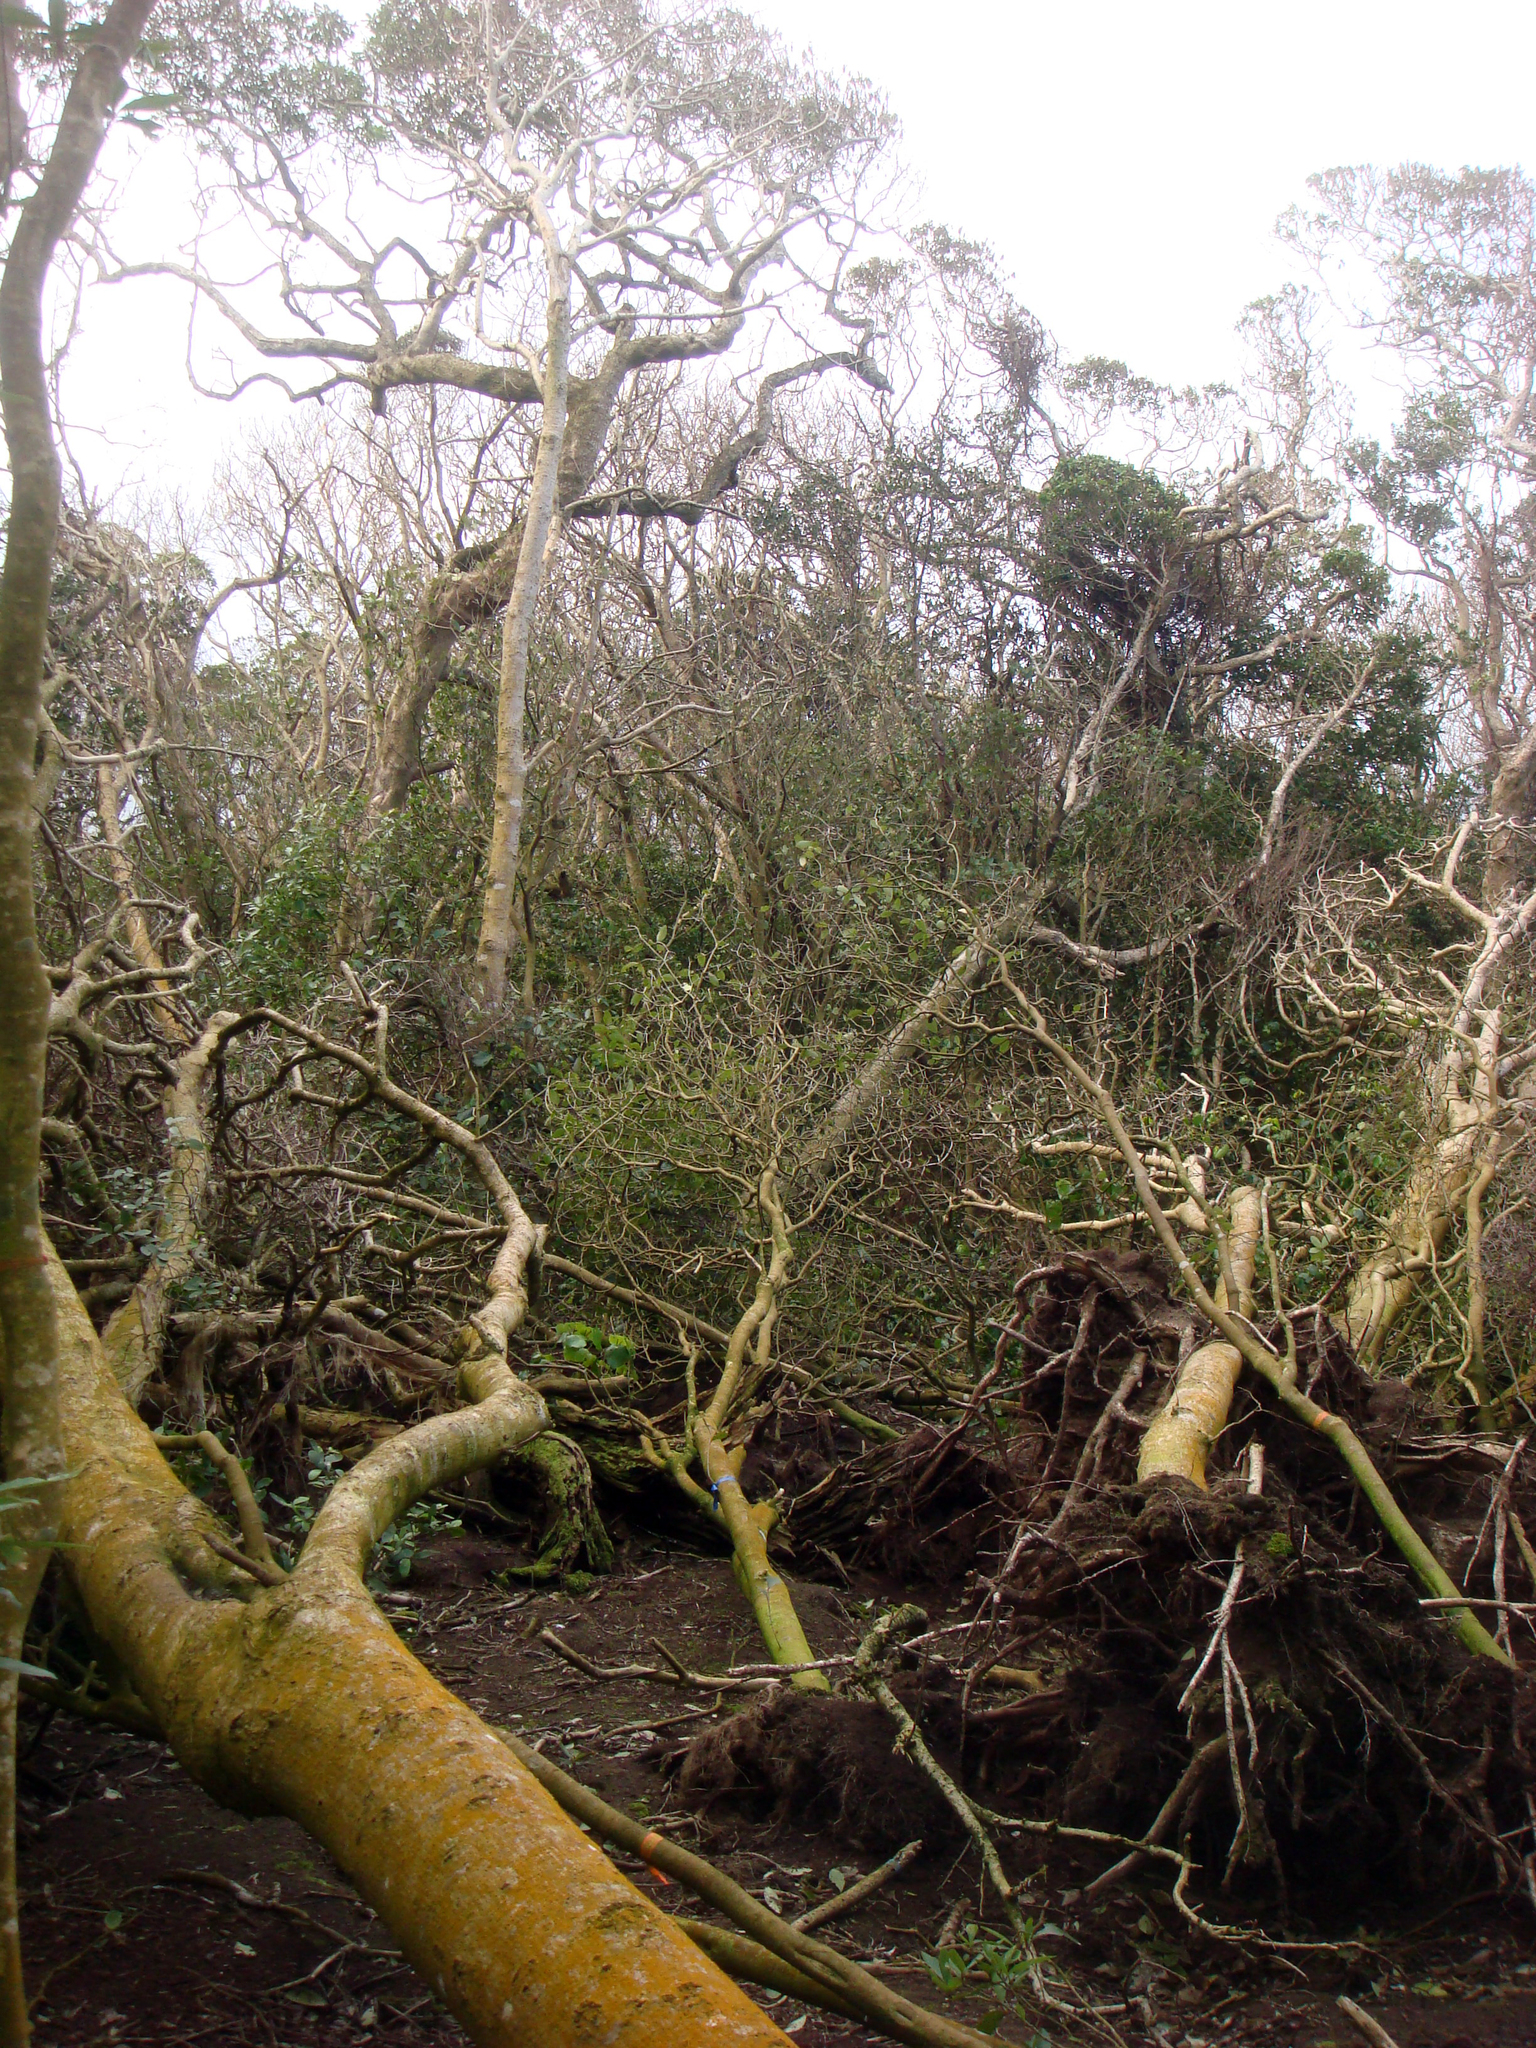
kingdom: Plantae
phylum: Tracheophyta
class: Magnoliopsida
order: Malvales
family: Malvaceae
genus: Plagianthus
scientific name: Plagianthus regius
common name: Manatu
